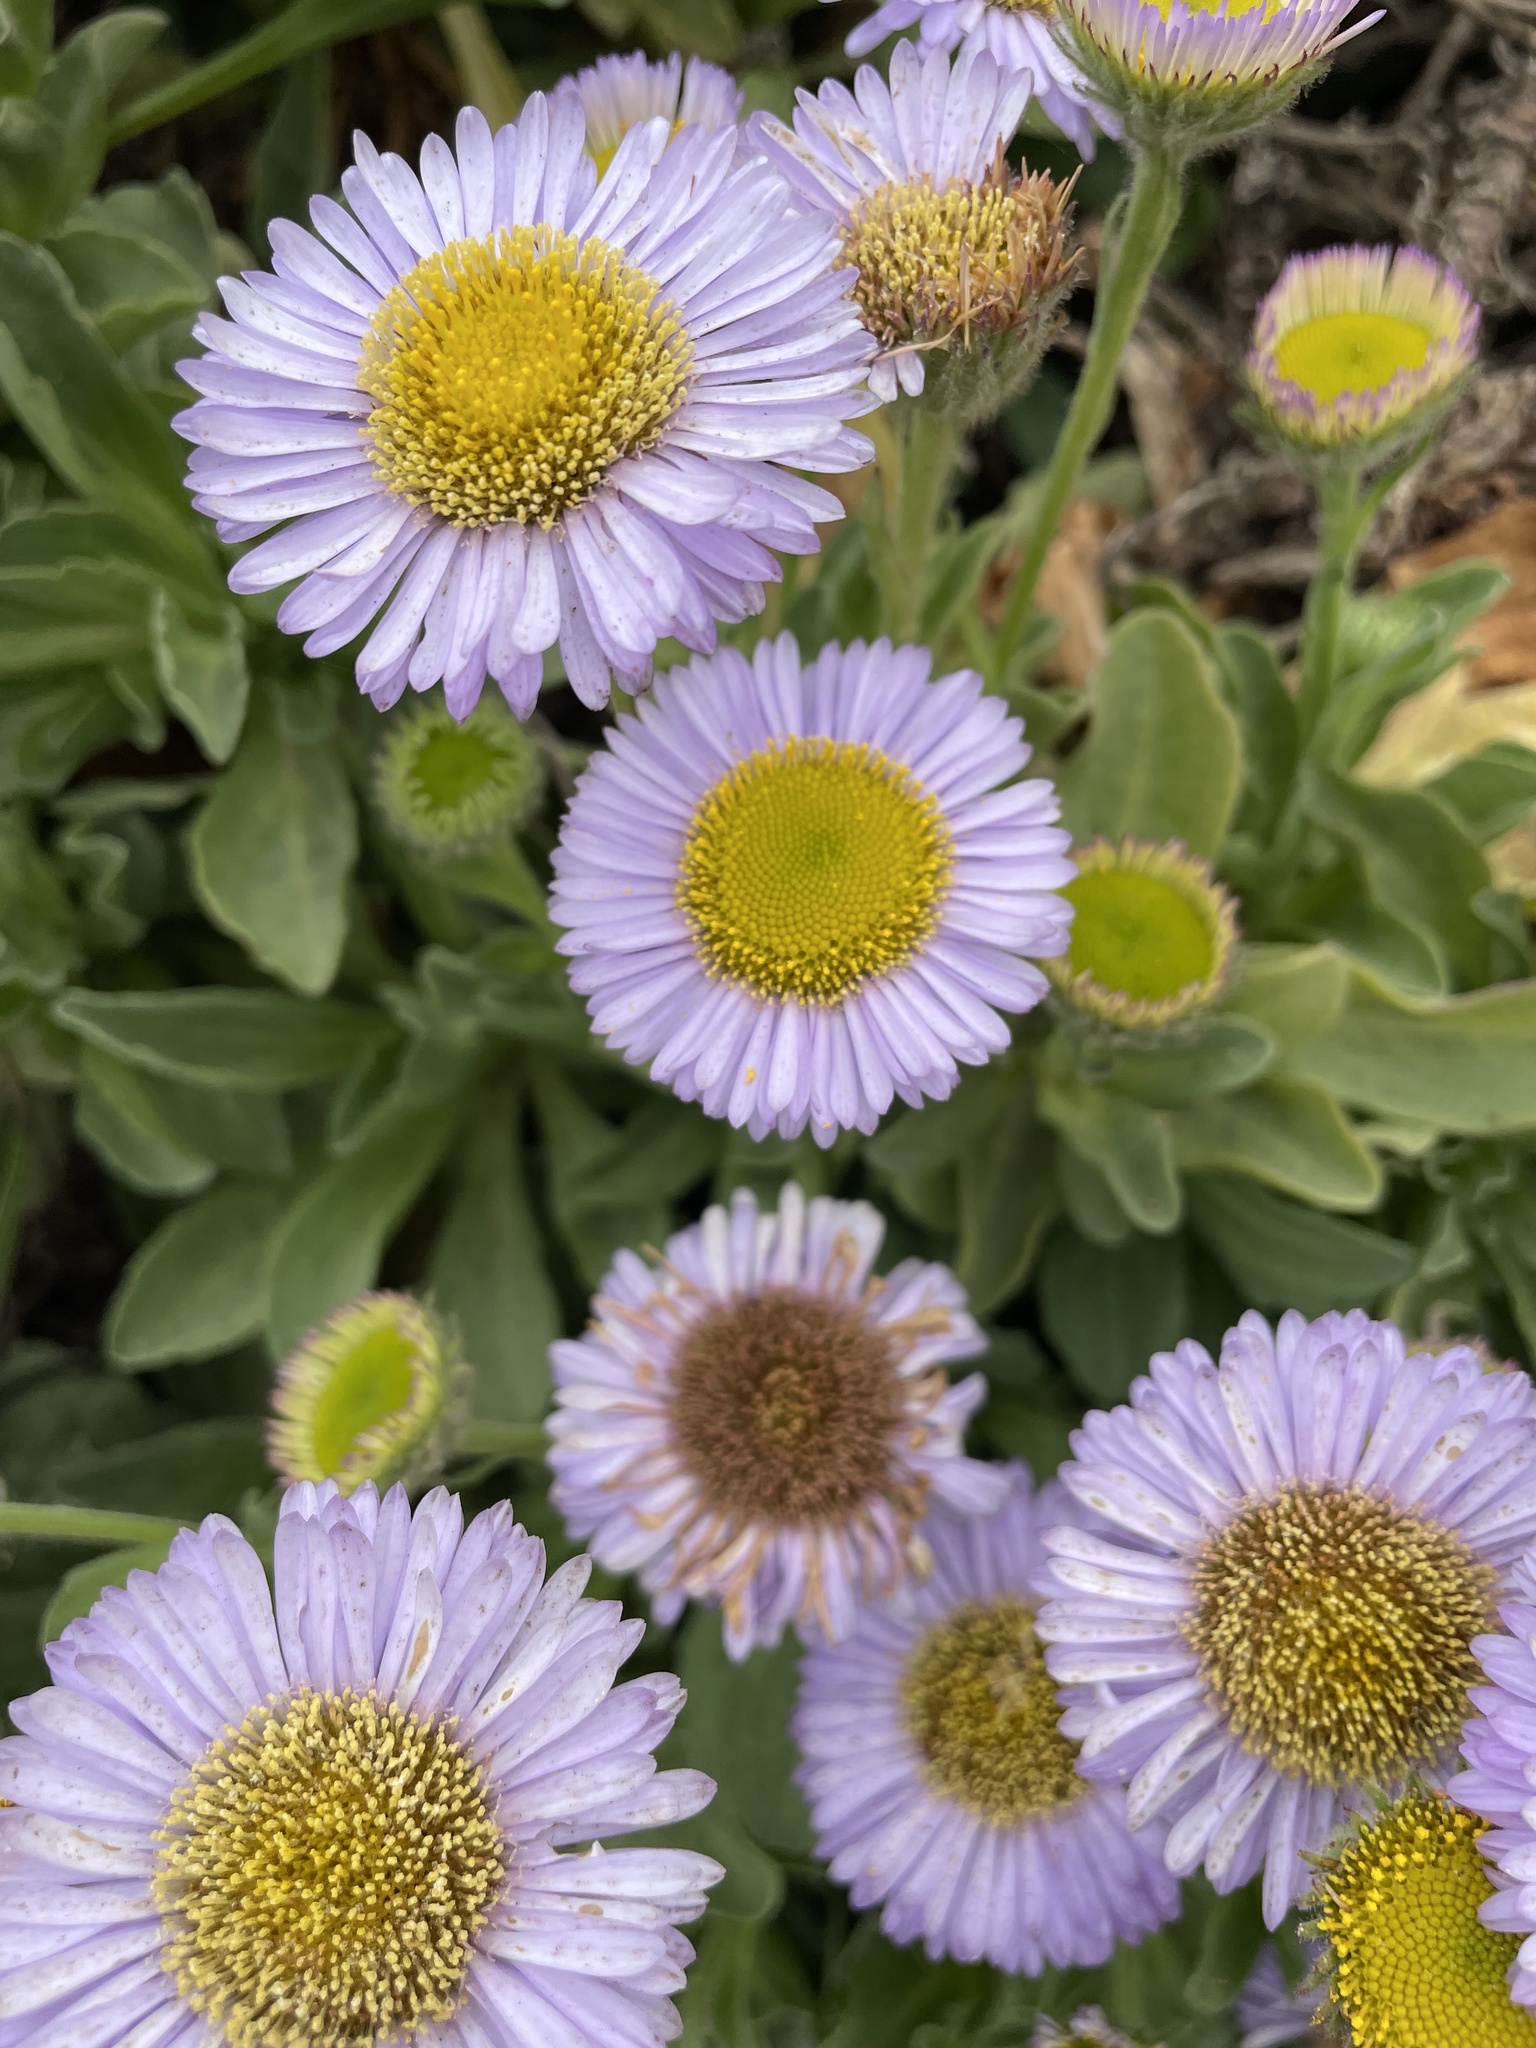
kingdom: Plantae
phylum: Tracheophyta
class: Magnoliopsida
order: Asterales
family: Asteraceae
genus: Erigeron
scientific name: Erigeron glaucus
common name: Seaside daisy
